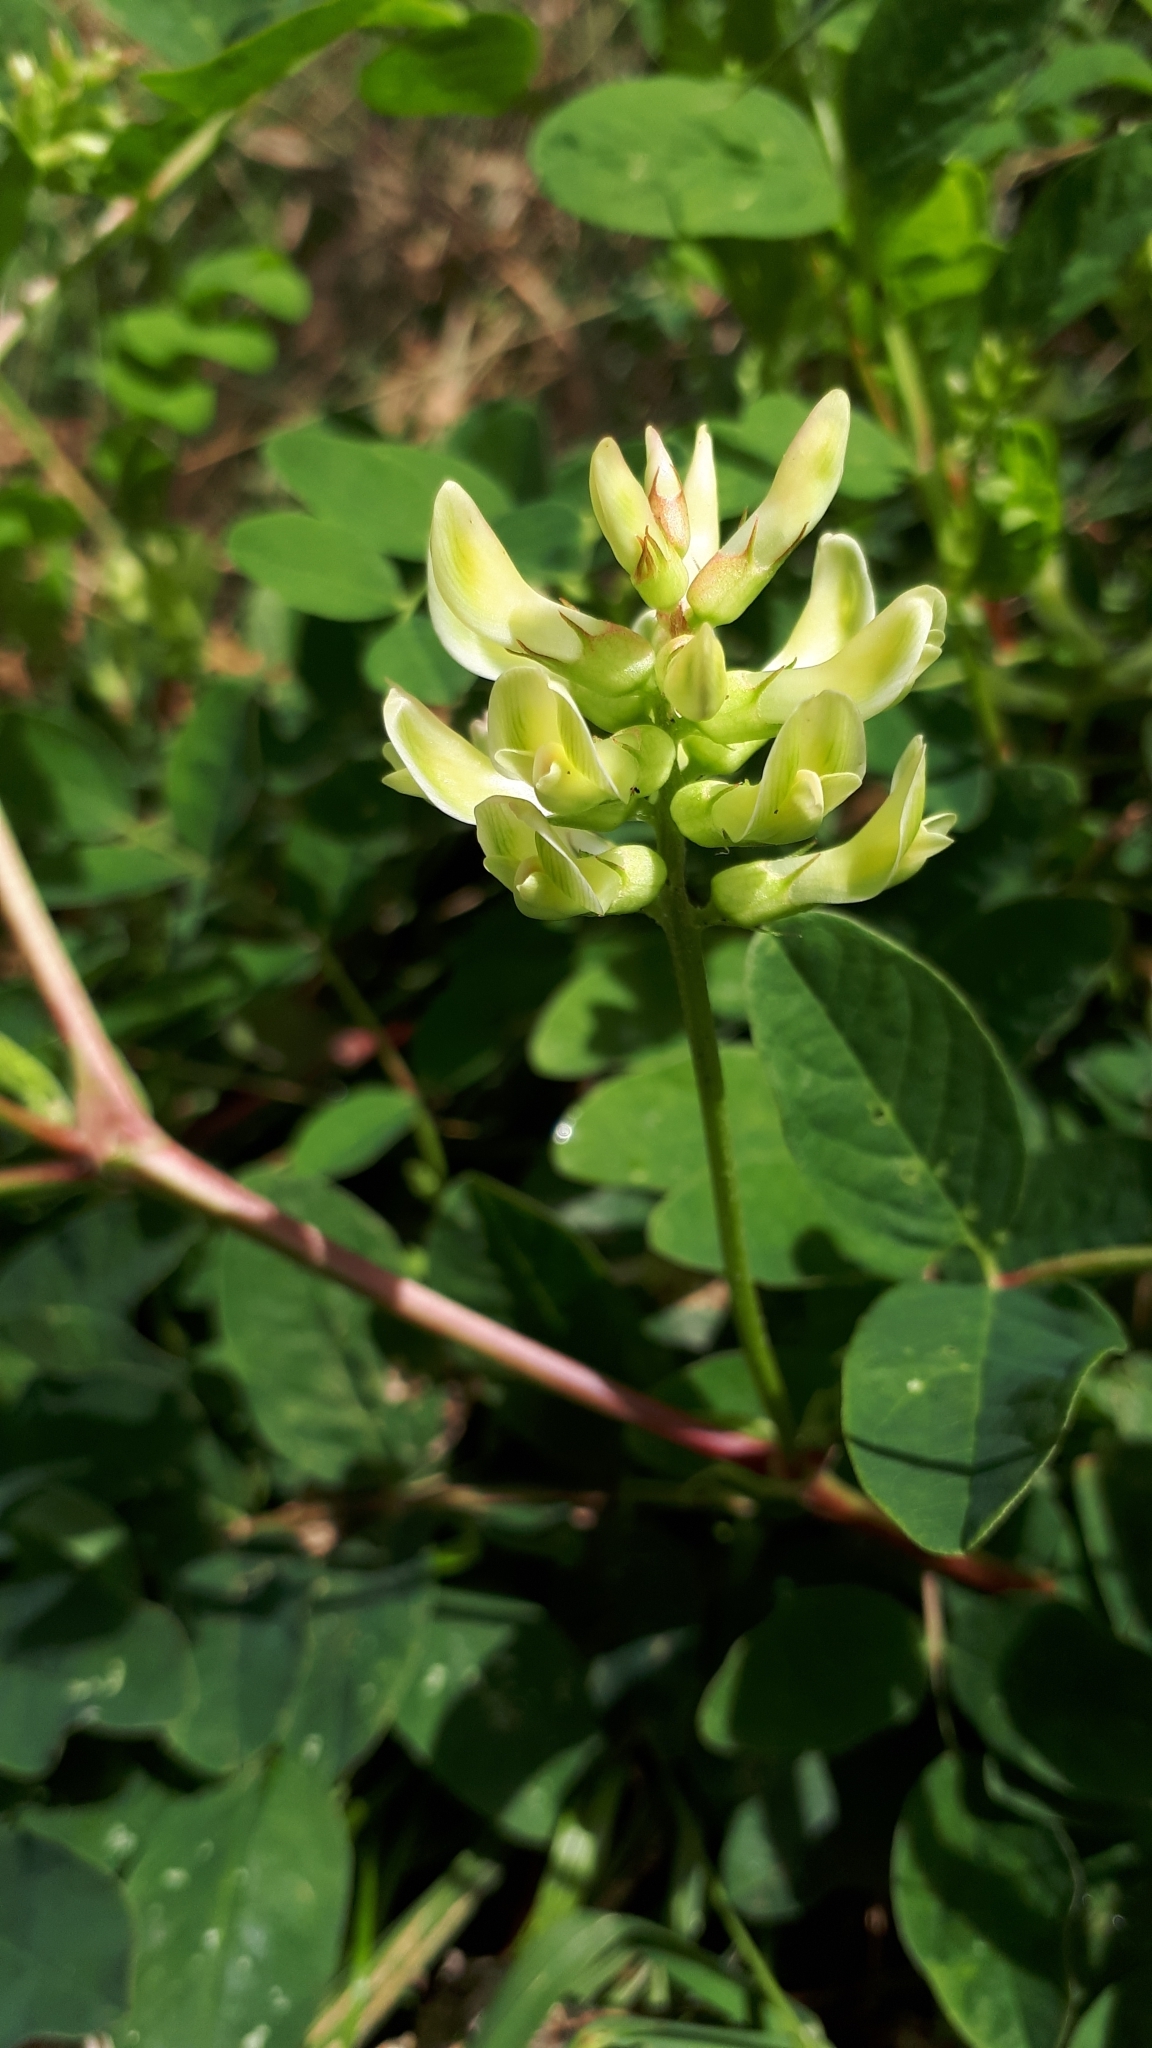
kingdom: Plantae
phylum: Tracheophyta
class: Magnoliopsida
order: Fabales
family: Fabaceae
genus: Astragalus
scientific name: Astragalus glycyphyllos
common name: Wild liquorice
